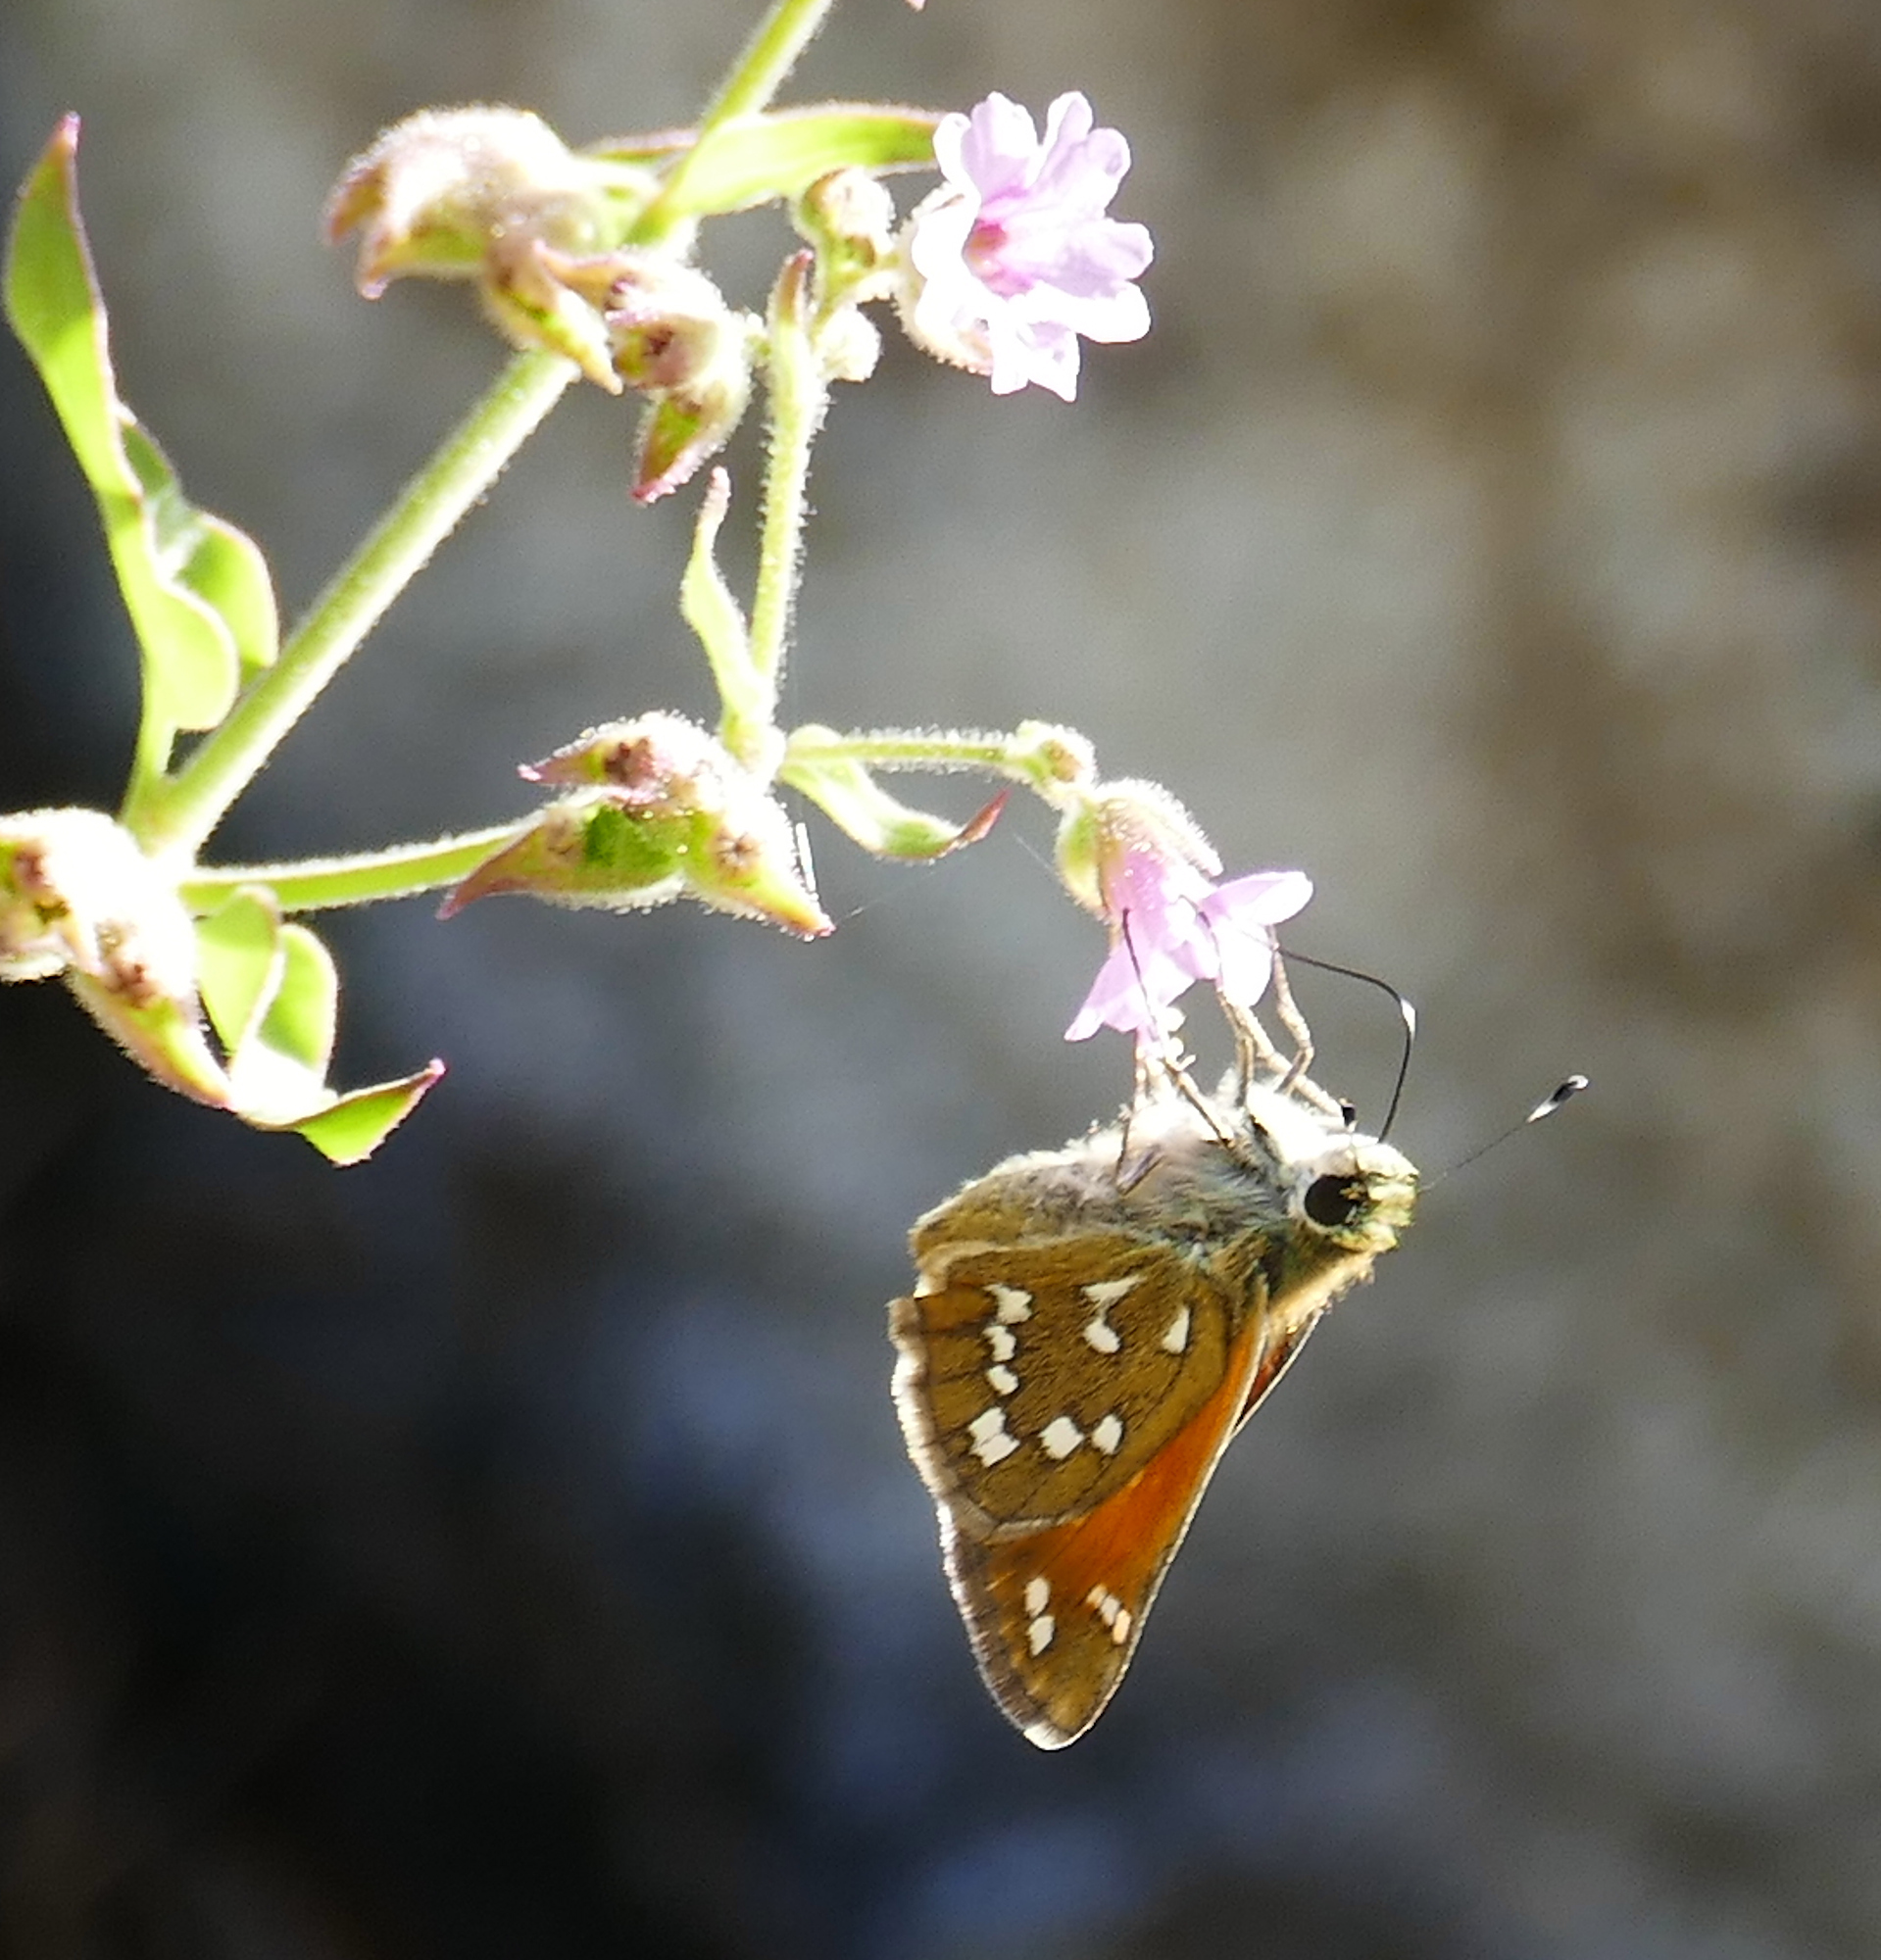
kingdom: Animalia
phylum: Arthropoda
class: Insecta
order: Lepidoptera
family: Hesperiidae
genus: Hesperia
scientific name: Hesperia woodgatei
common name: Apache skipper
